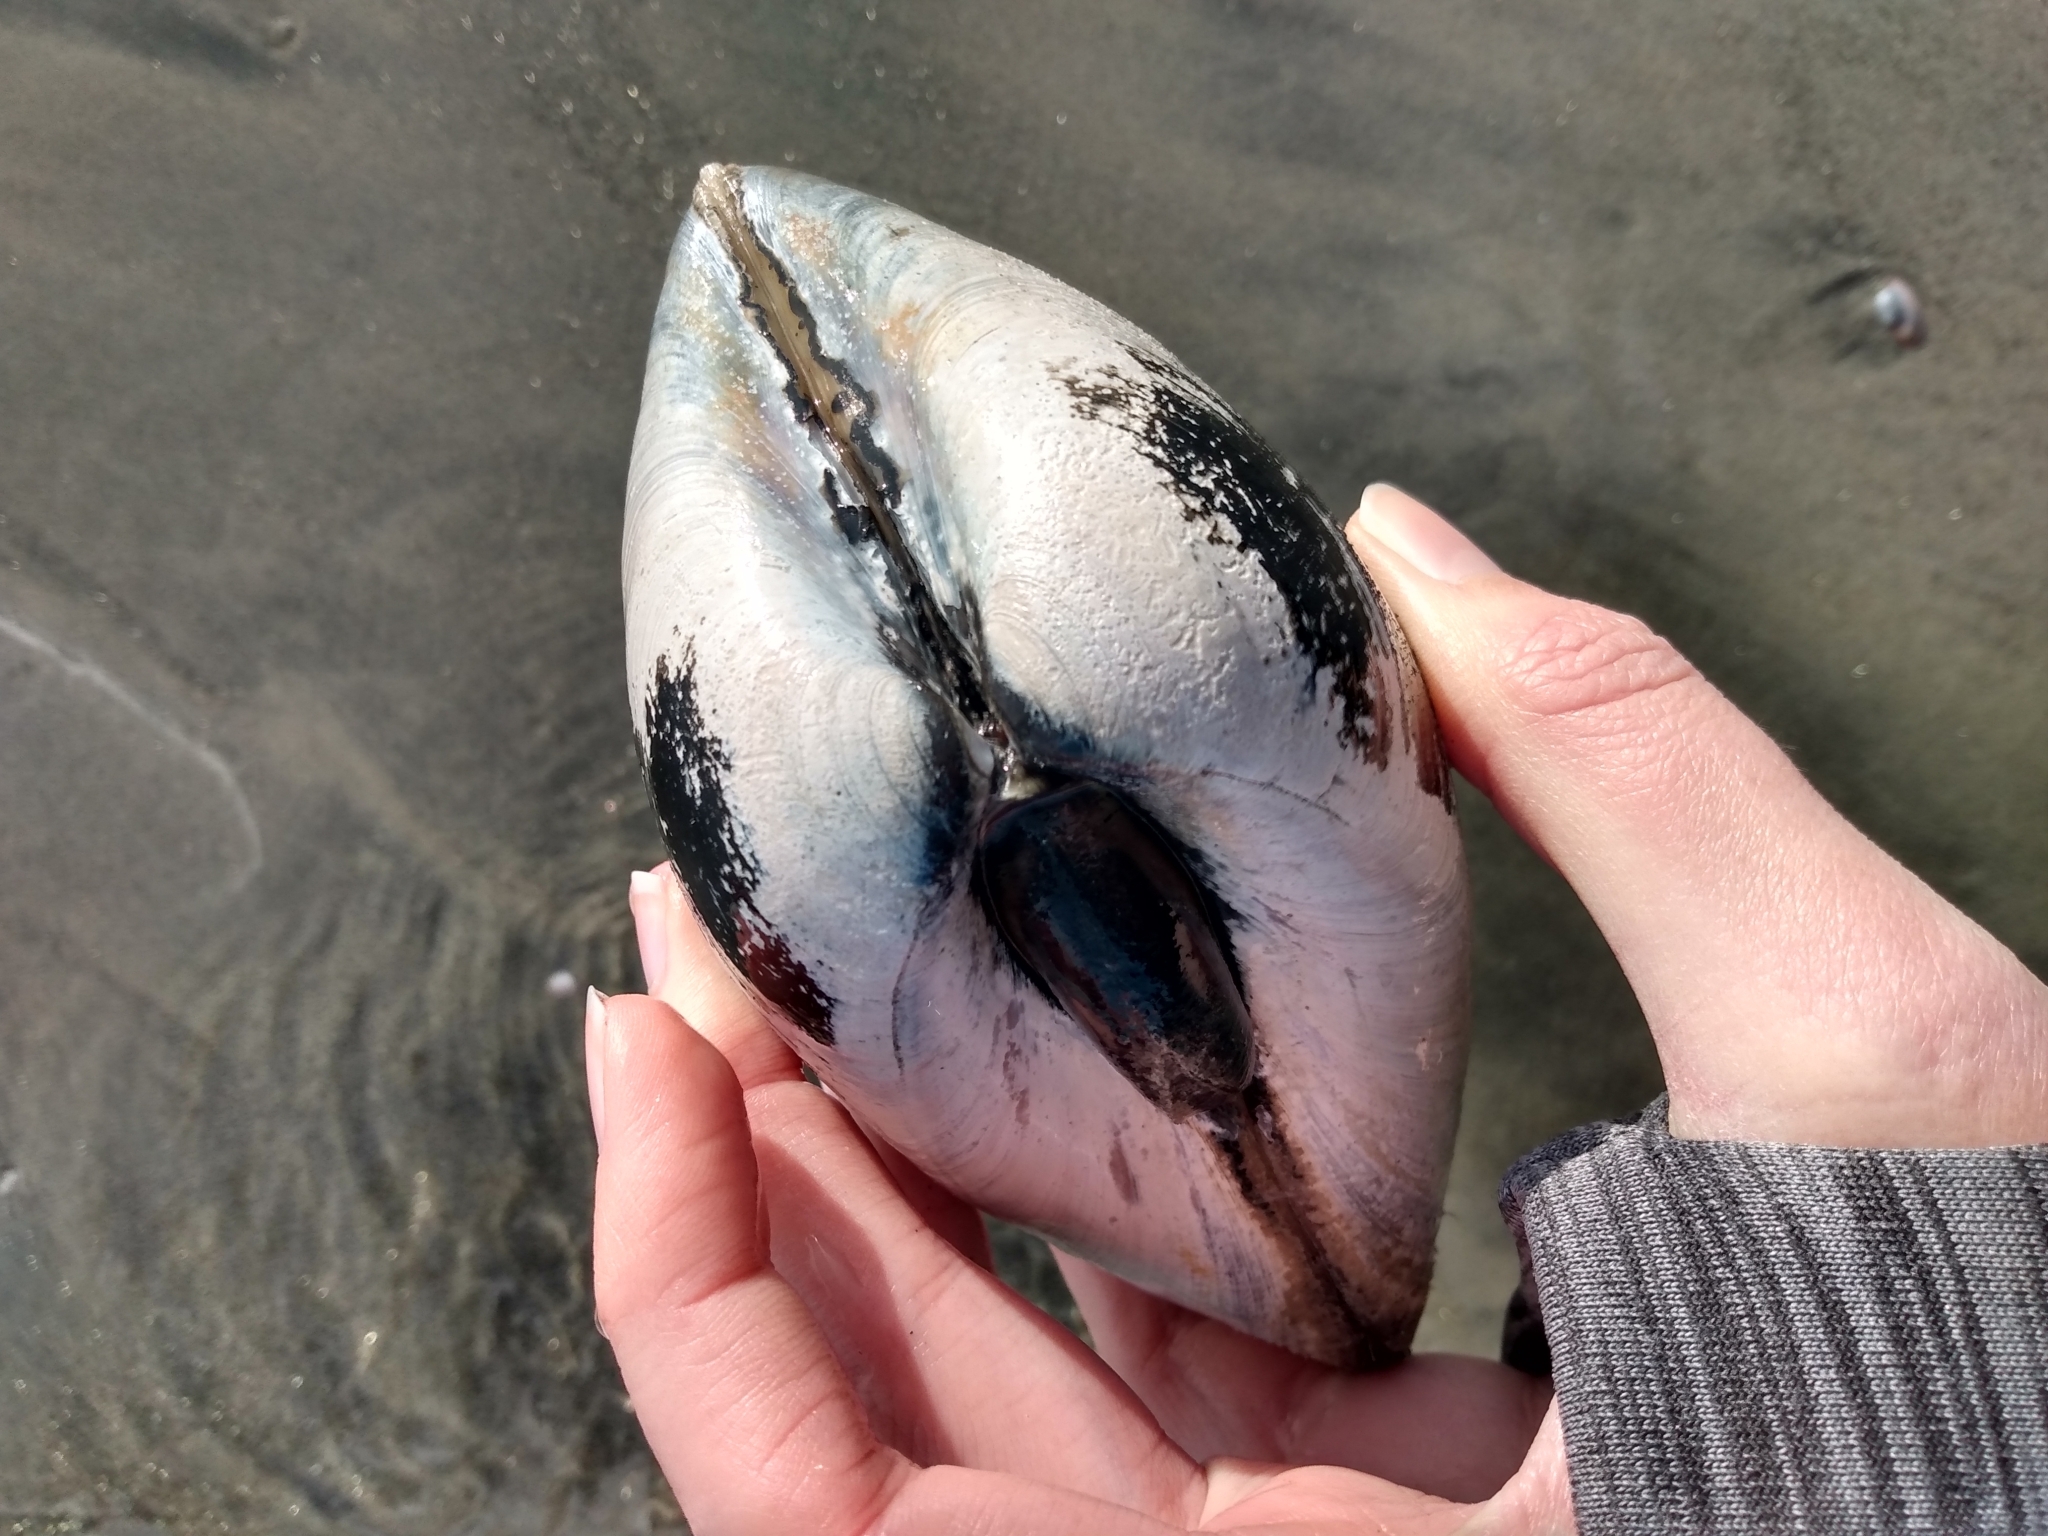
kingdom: Animalia
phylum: Mollusca
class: Bivalvia
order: Venerida
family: Veneridae
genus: Tivela
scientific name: Tivela stultorum
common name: Pismo clam
